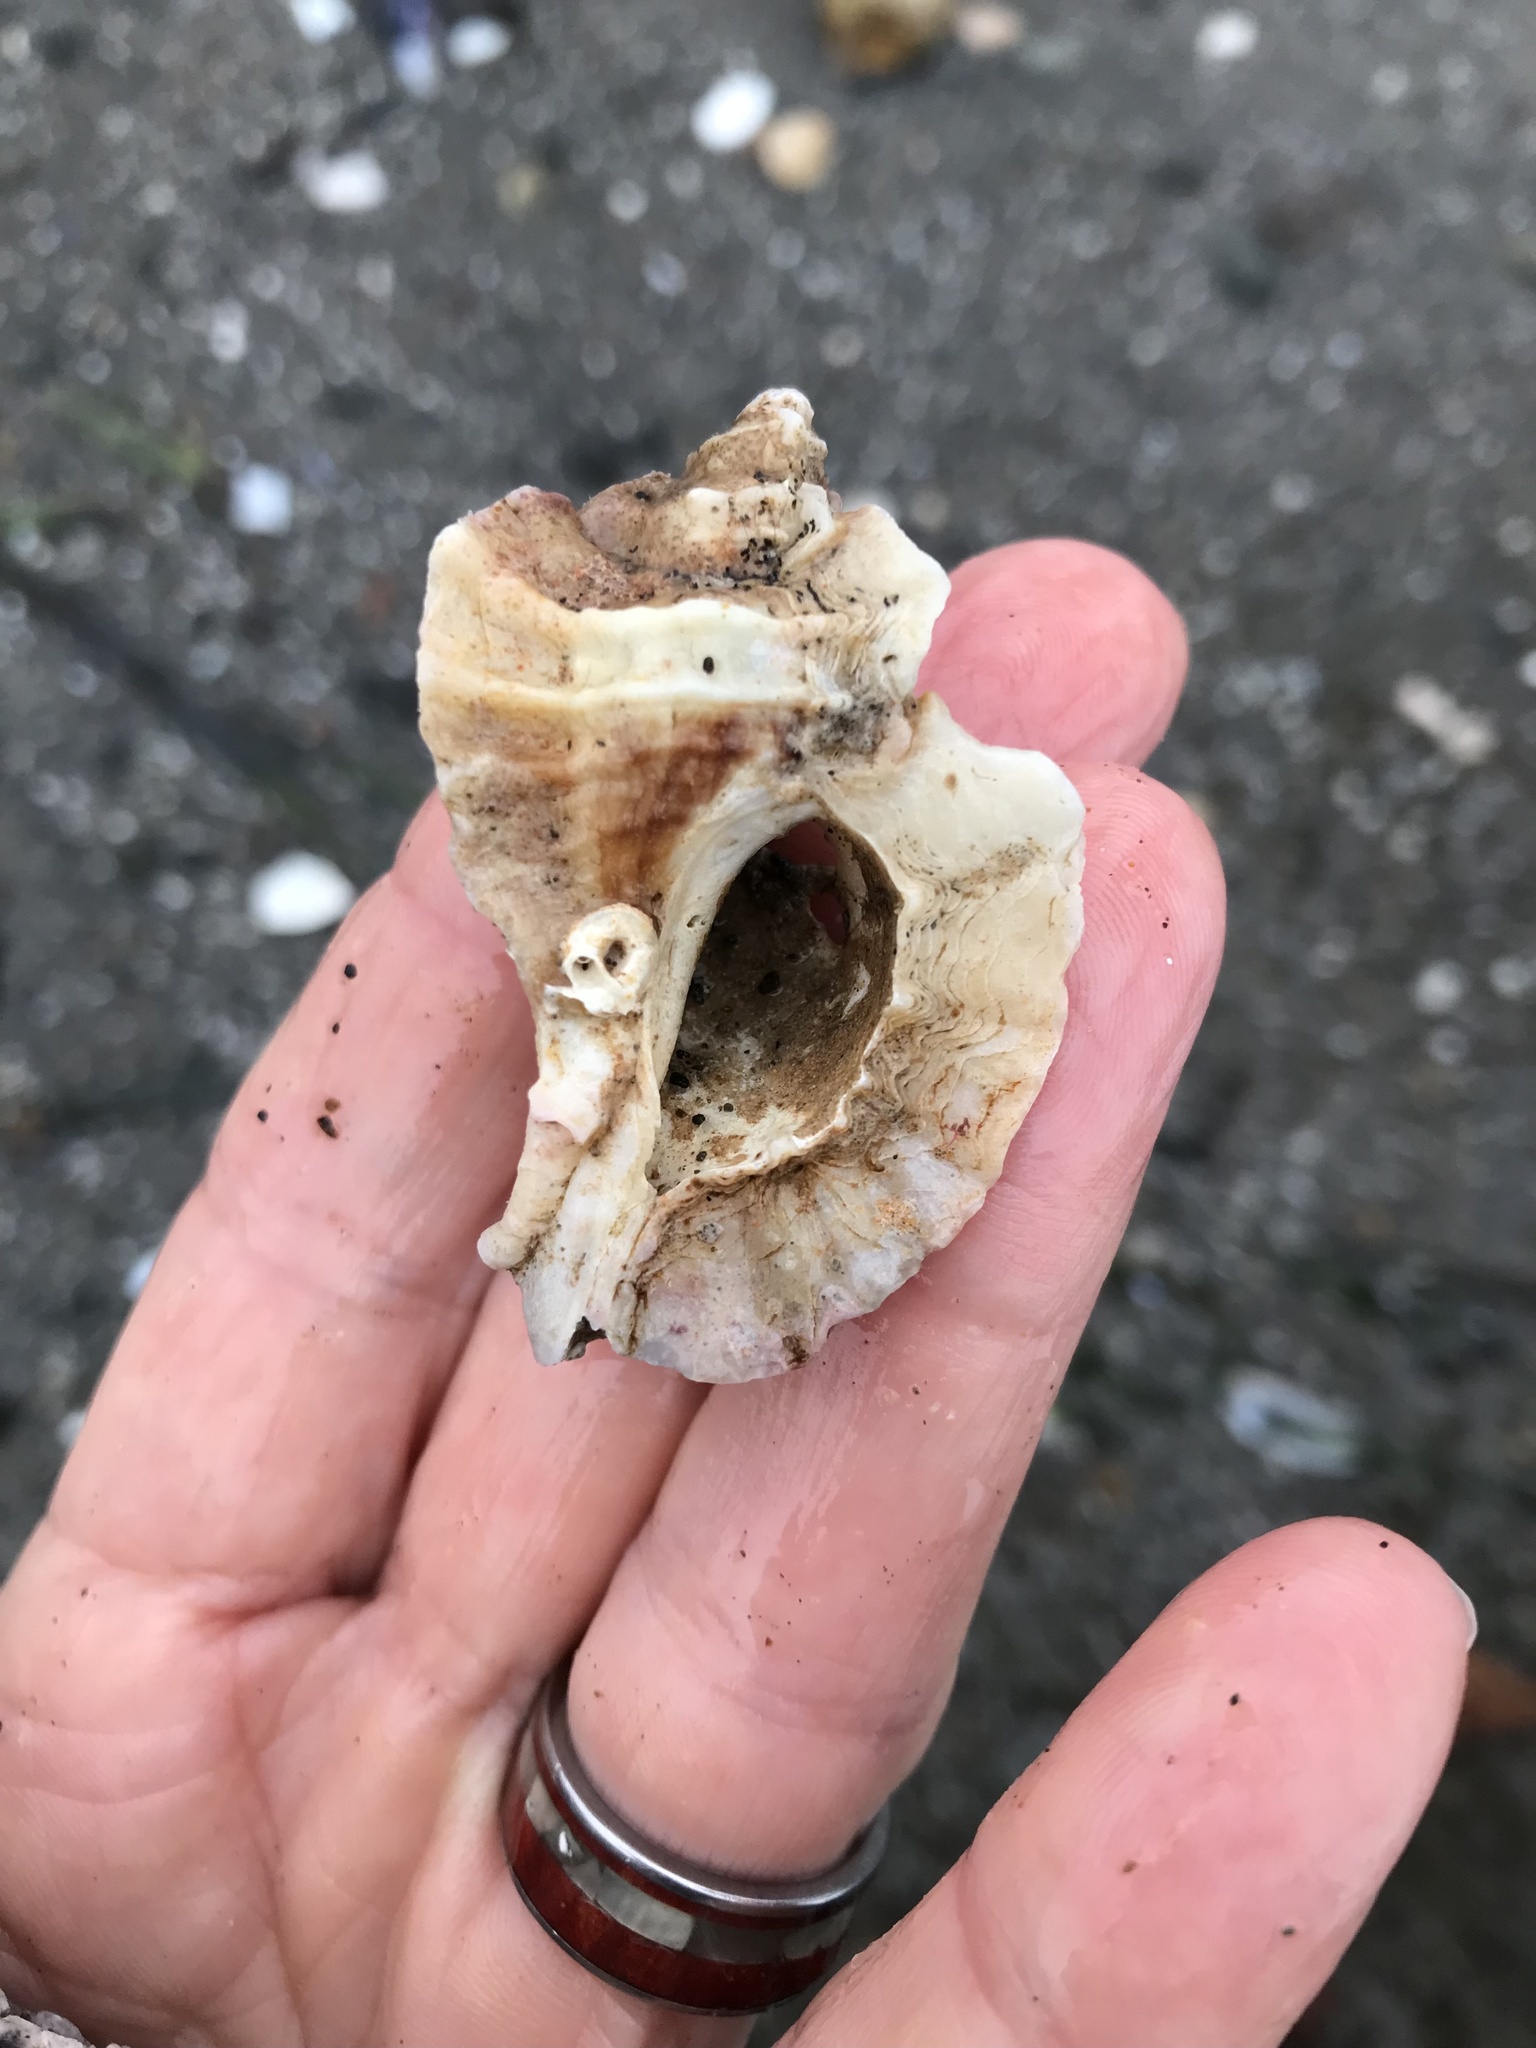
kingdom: Animalia
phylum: Mollusca
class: Gastropoda
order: Neogastropoda
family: Muricidae
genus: Ceratostoma
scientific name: Ceratostoma foliatum
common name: Foliate thorn purpura
